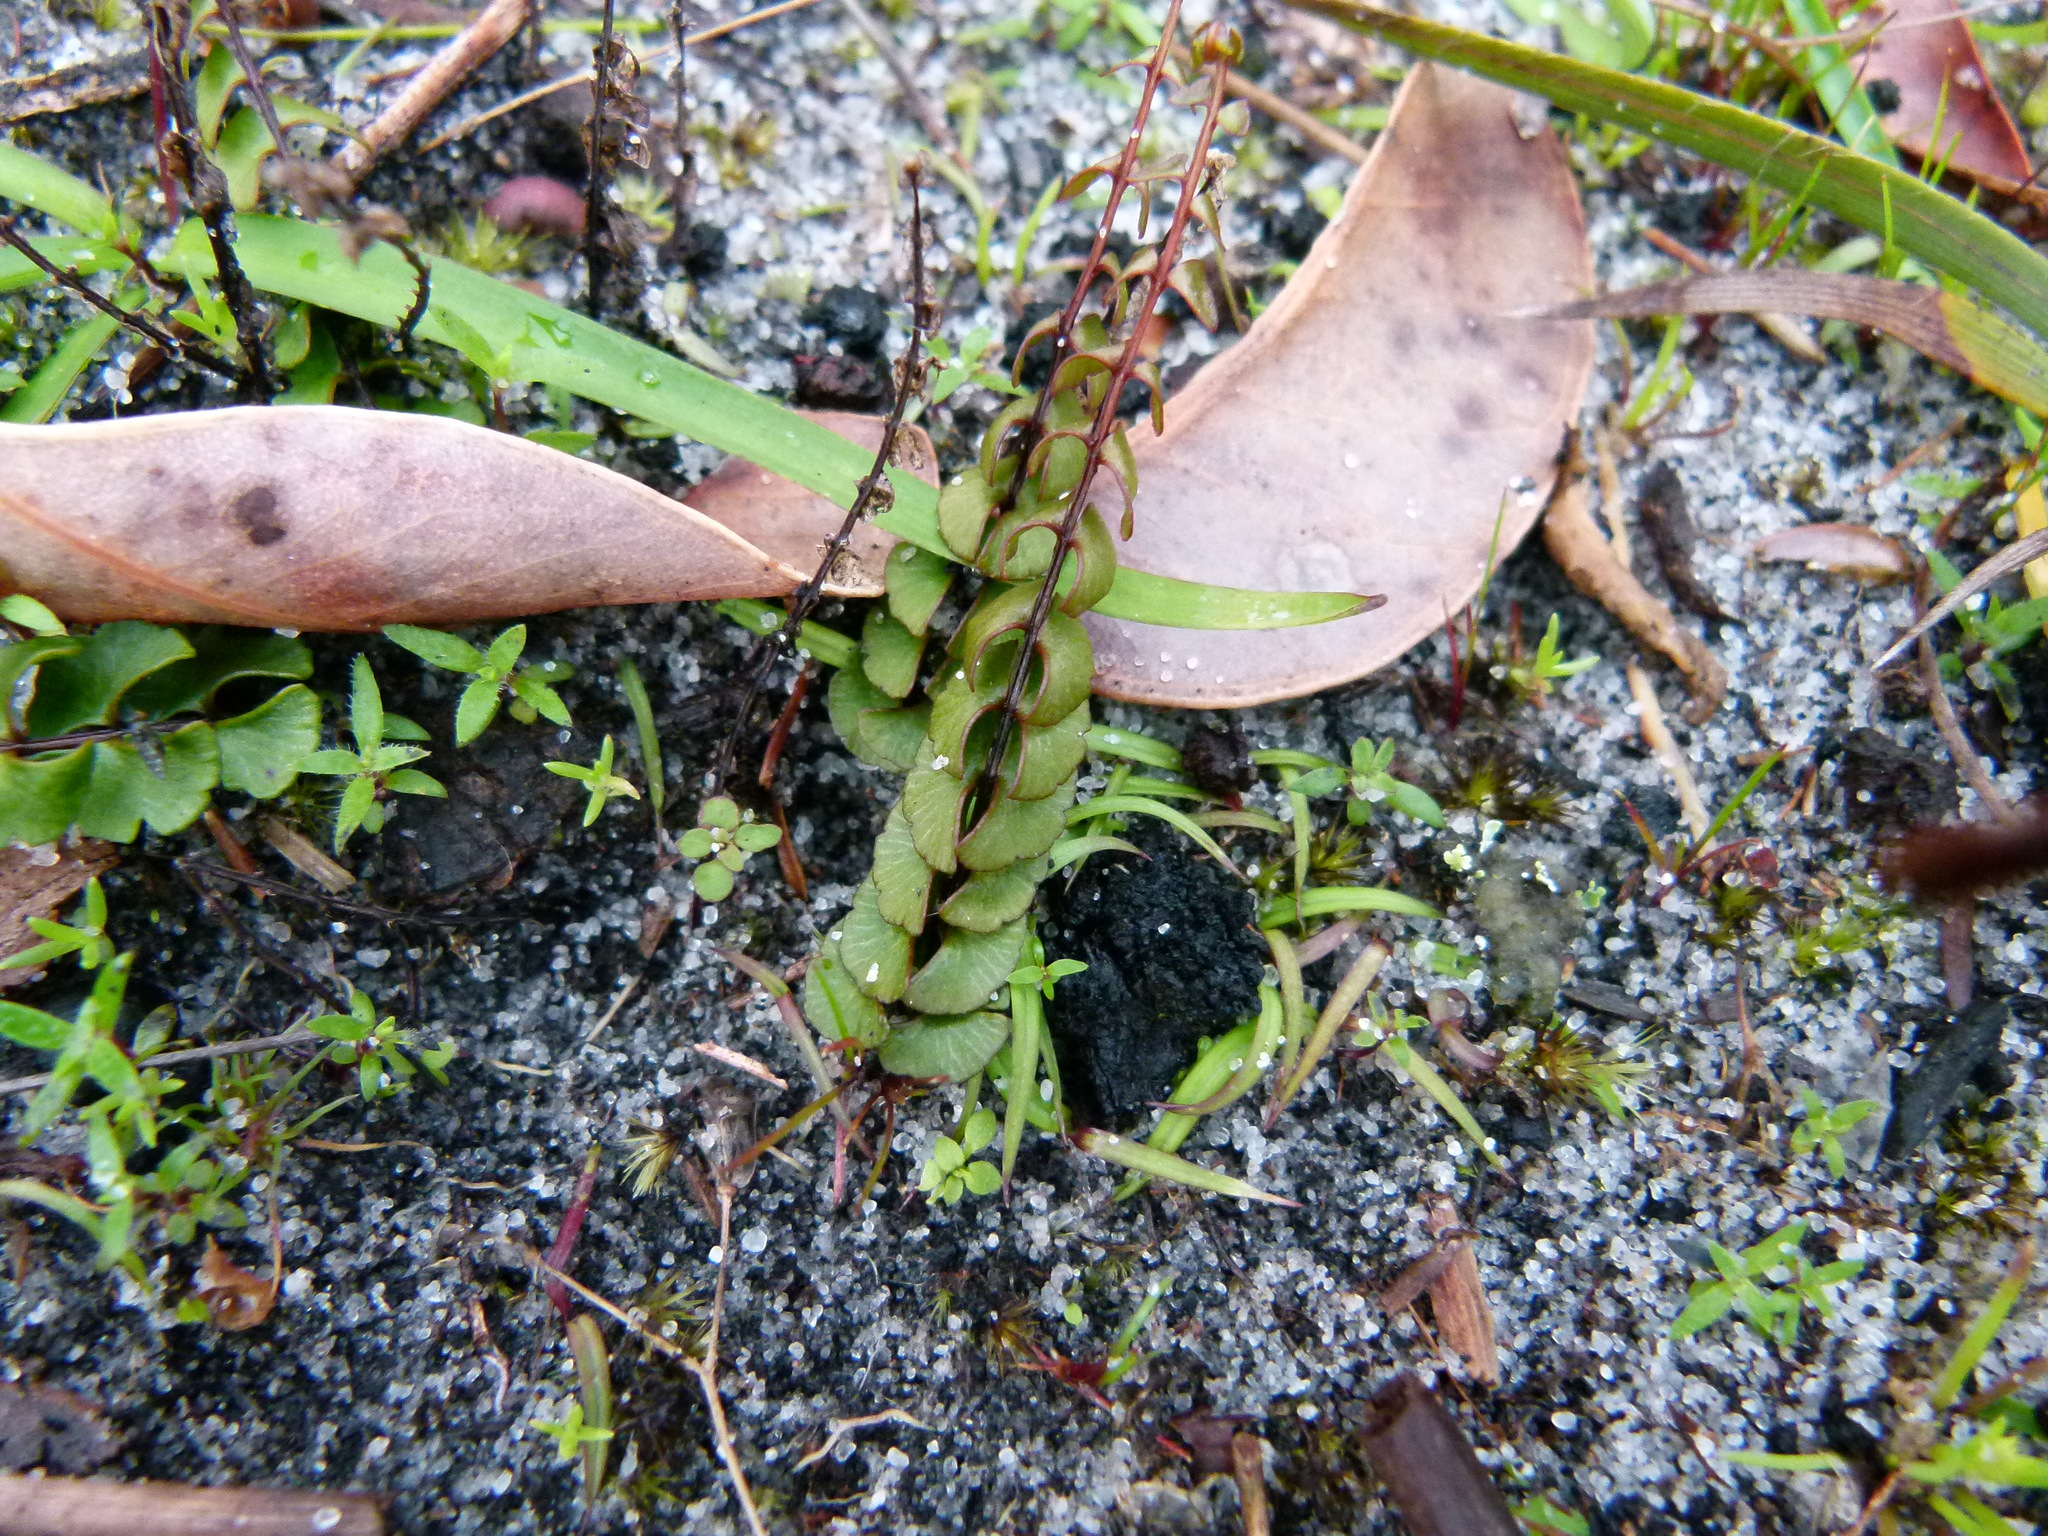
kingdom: Plantae
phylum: Tracheophyta
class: Polypodiopsida
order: Polypodiales
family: Lindsaeaceae
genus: Lindsaea
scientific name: Lindsaea linearis
